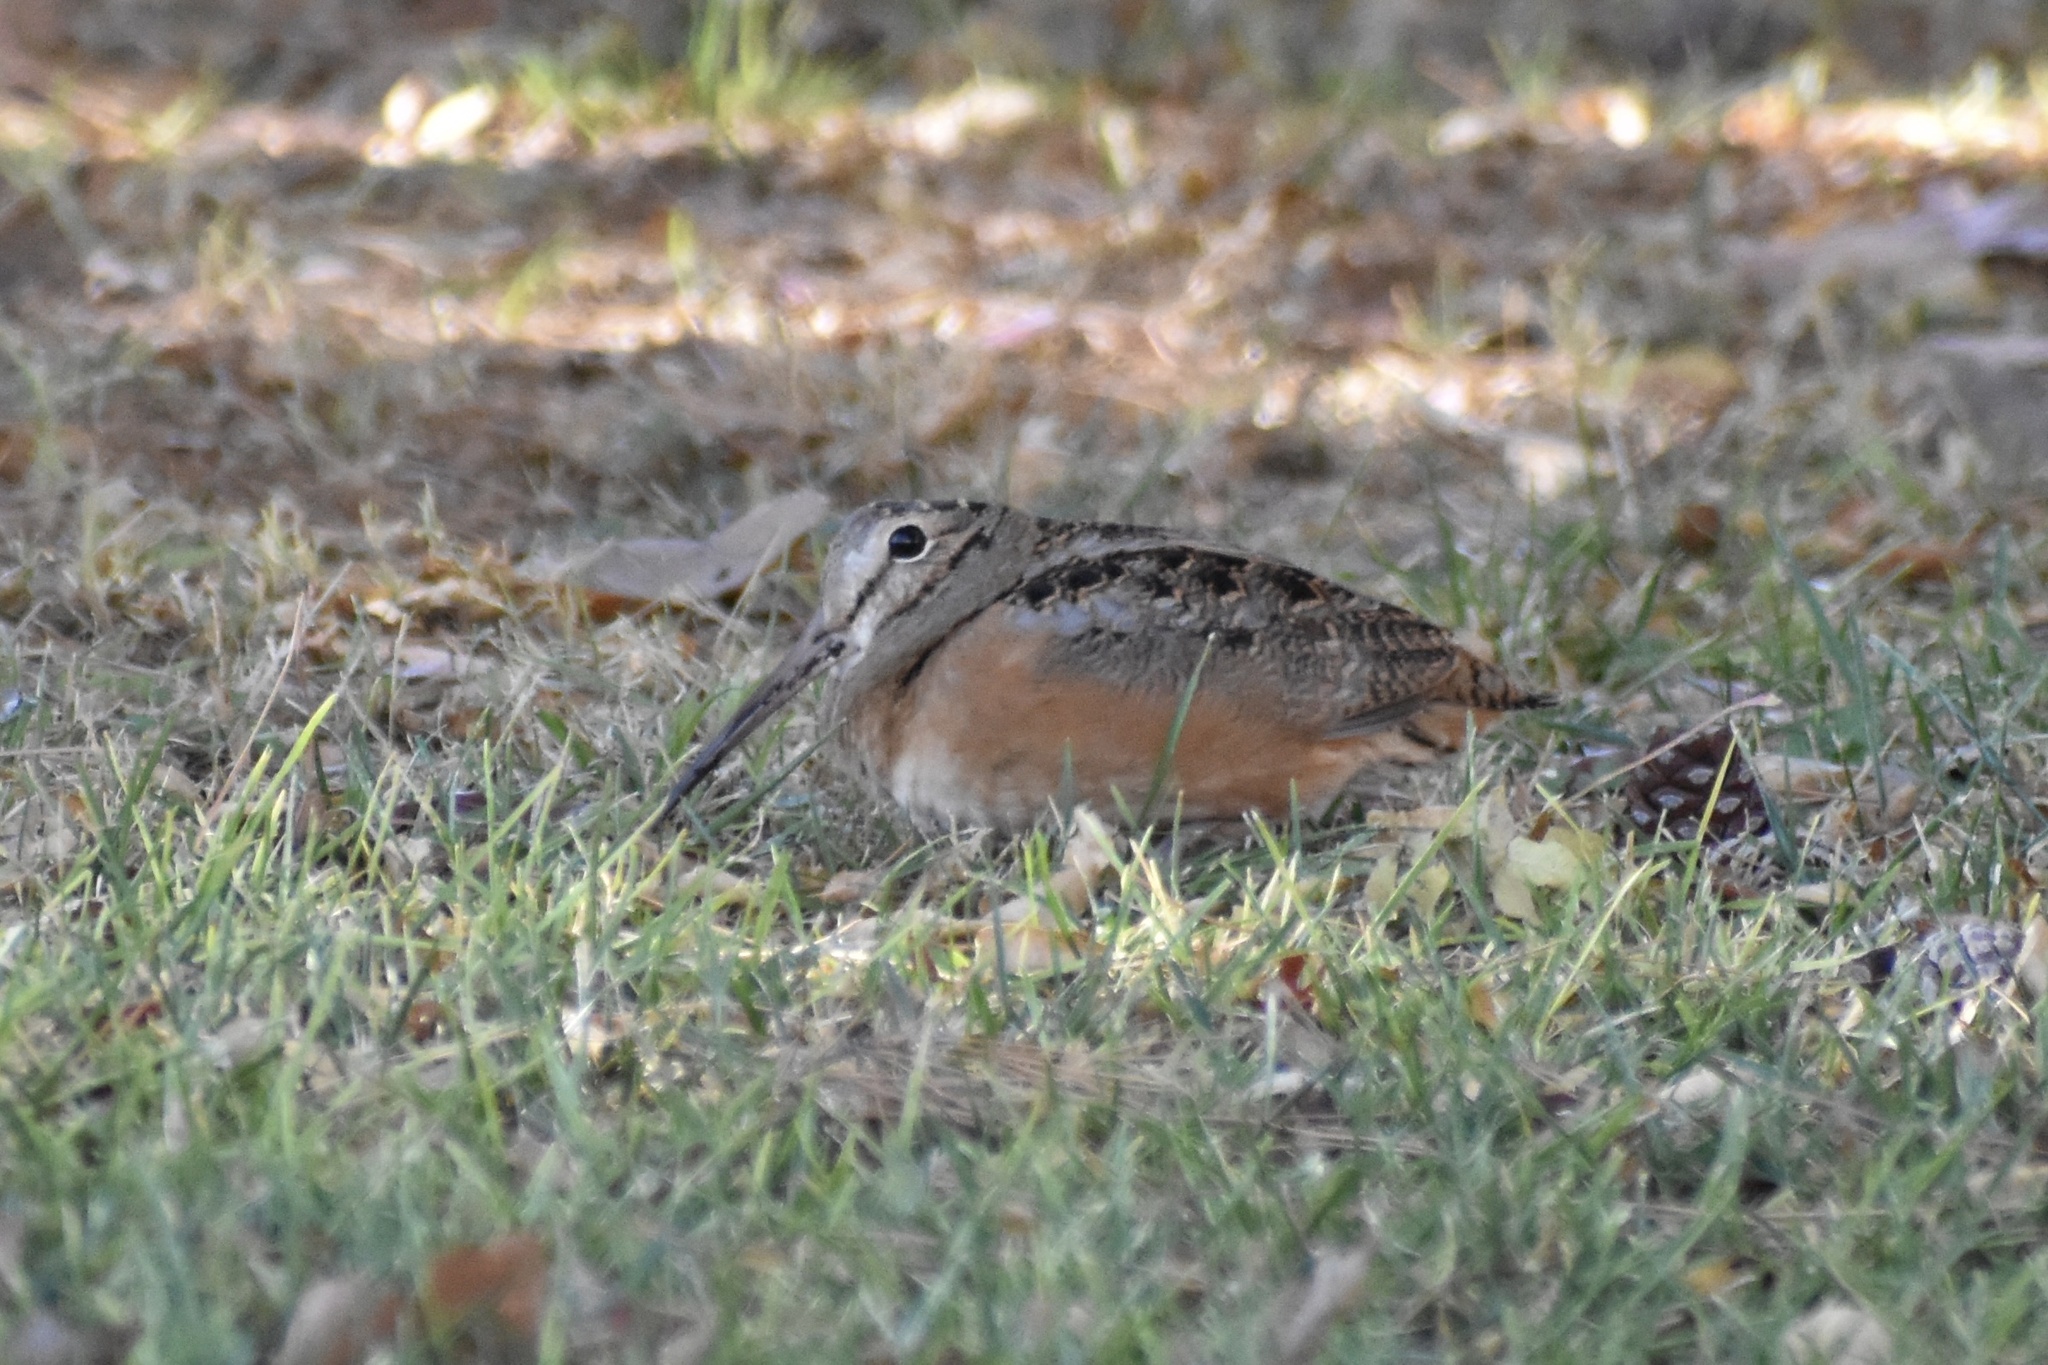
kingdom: Animalia
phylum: Chordata
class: Aves
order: Charadriiformes
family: Scolopacidae
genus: Scolopax
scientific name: Scolopax minor
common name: American woodcock
